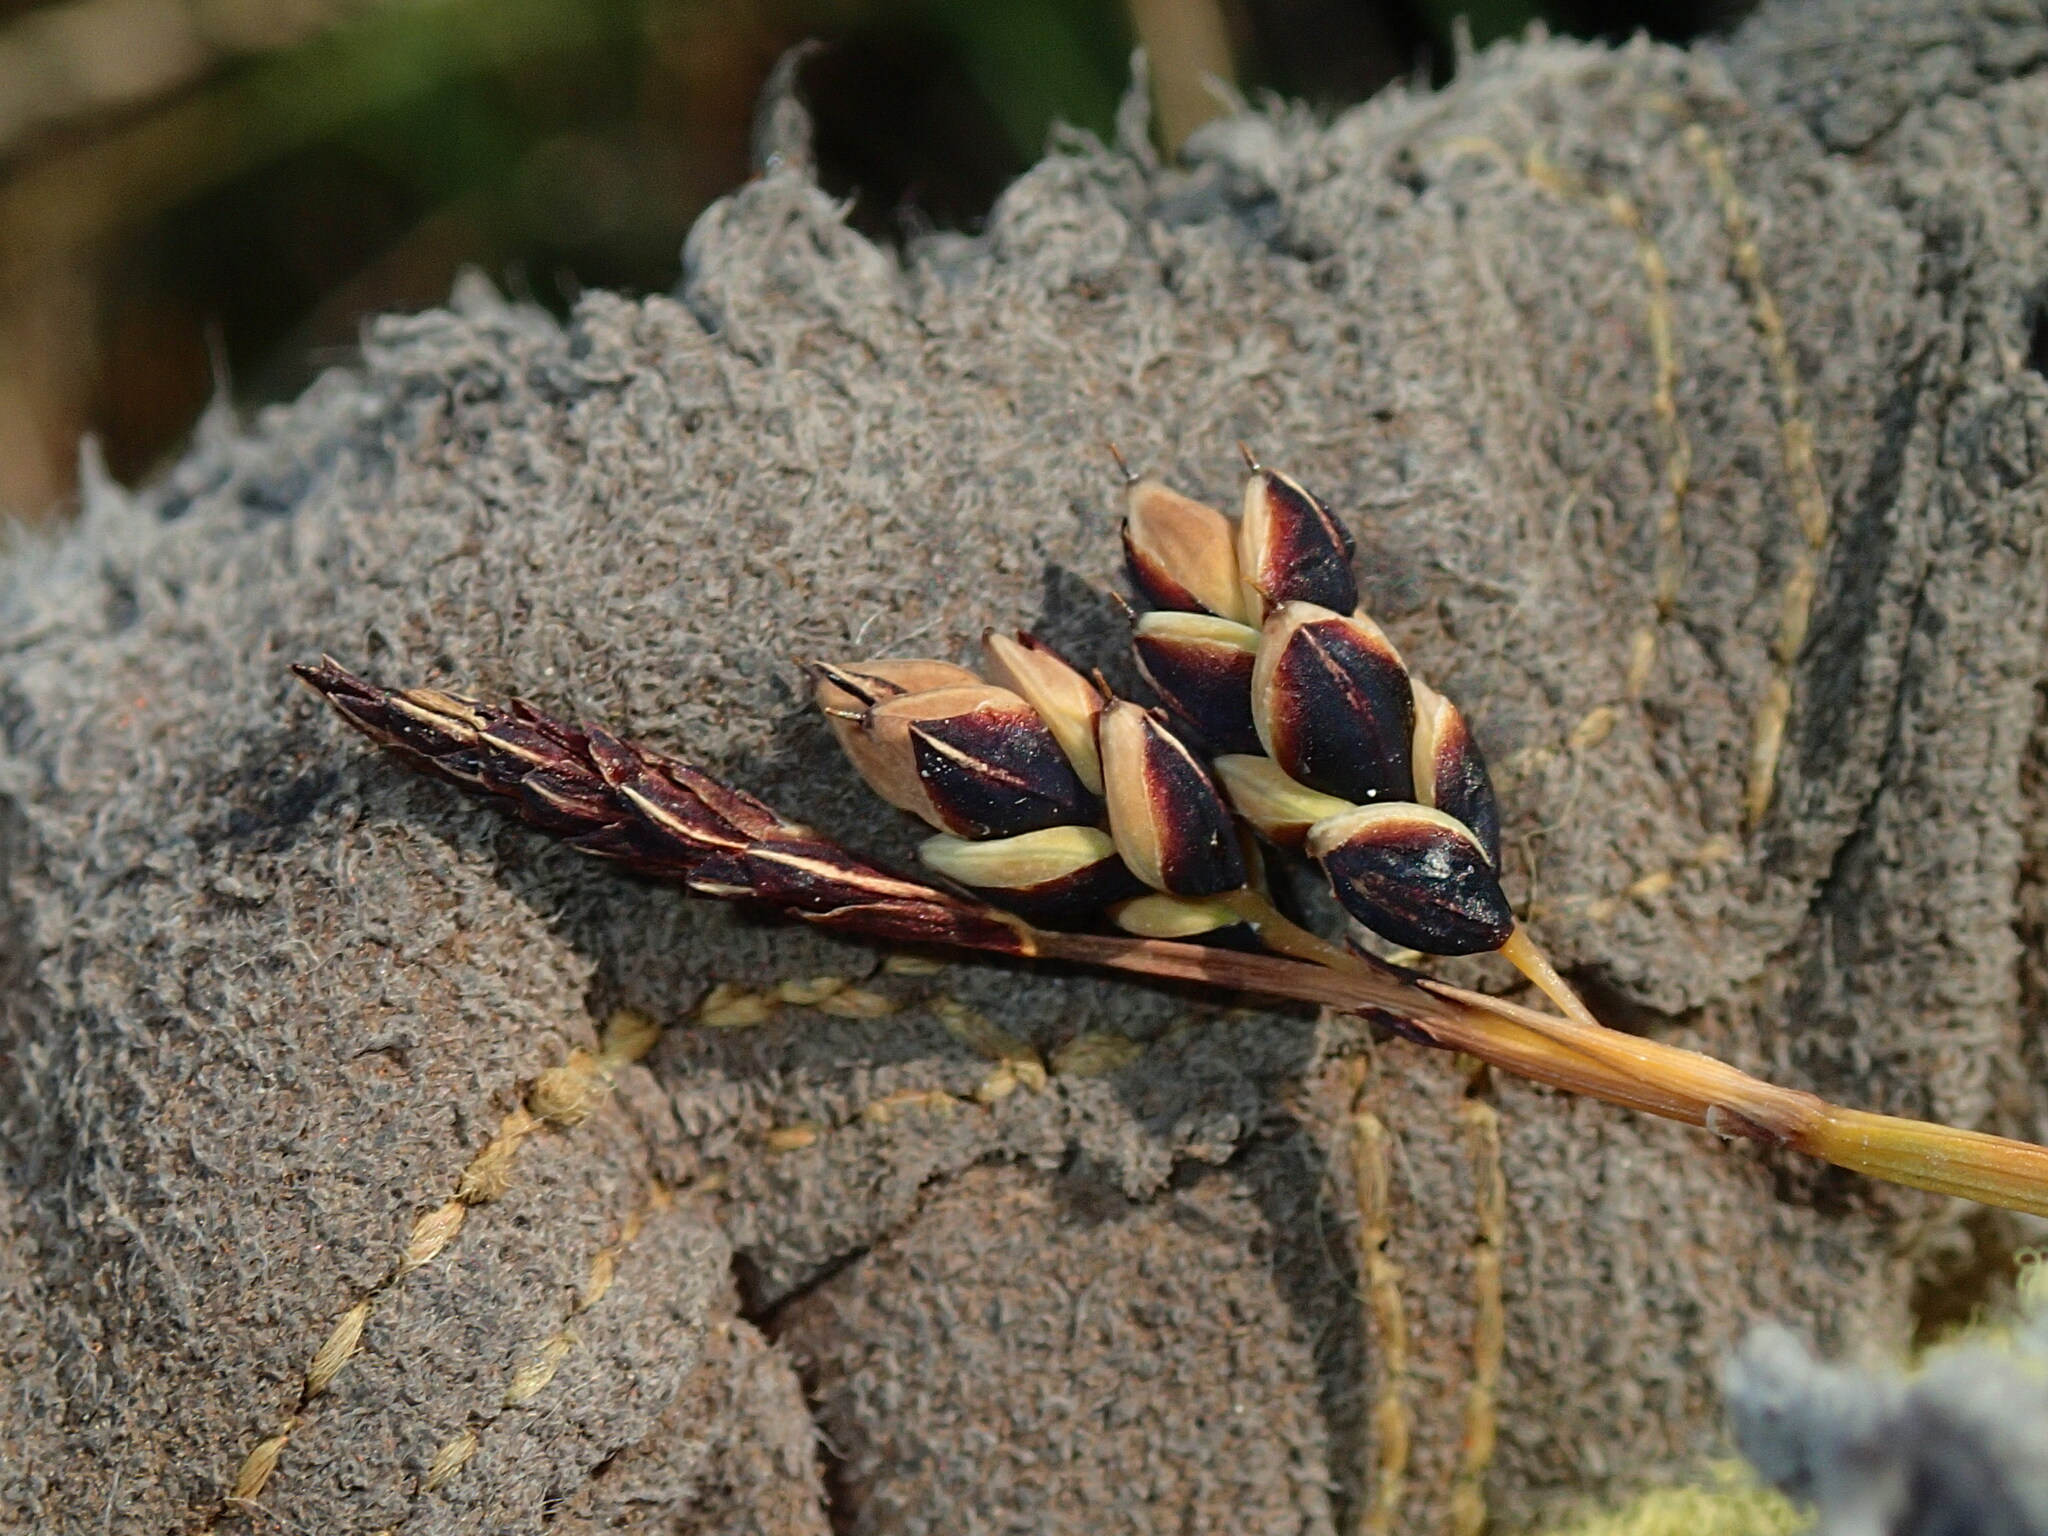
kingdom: Plantae
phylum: Tracheophyta
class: Liliopsida
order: Poales
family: Cyperaceae
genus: Carex
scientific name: Carex rariflora
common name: Loose-flowered alpine sedge
